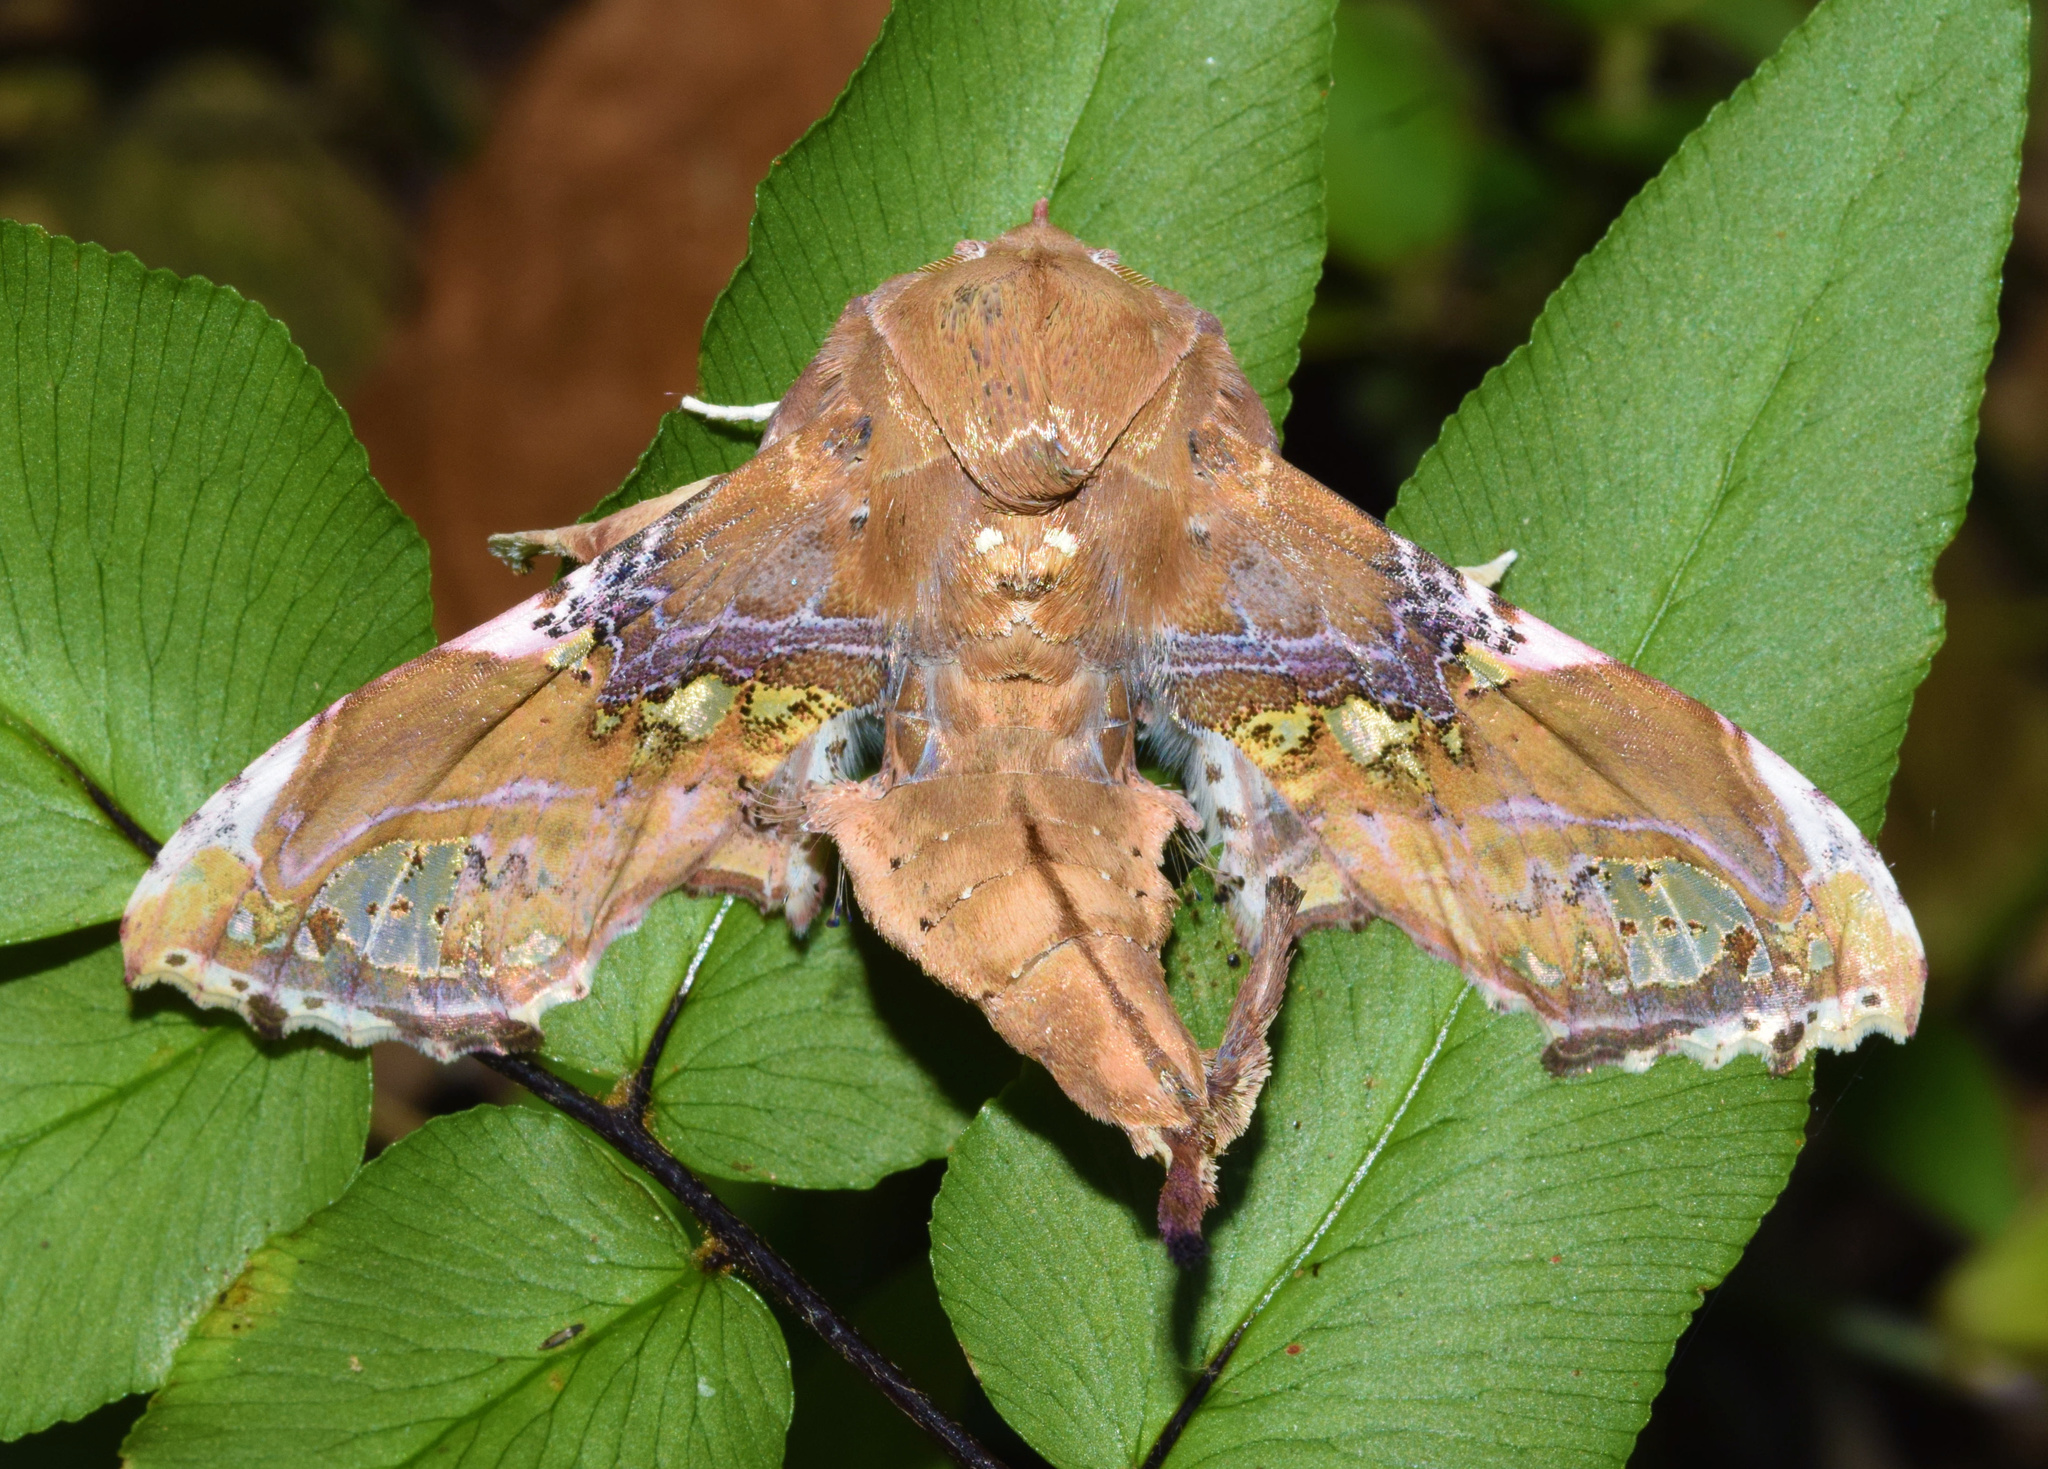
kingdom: Animalia
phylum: Arthropoda
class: Insecta
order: Lepidoptera
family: Euteliidae
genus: Caligatus
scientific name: Caligatus angasii
